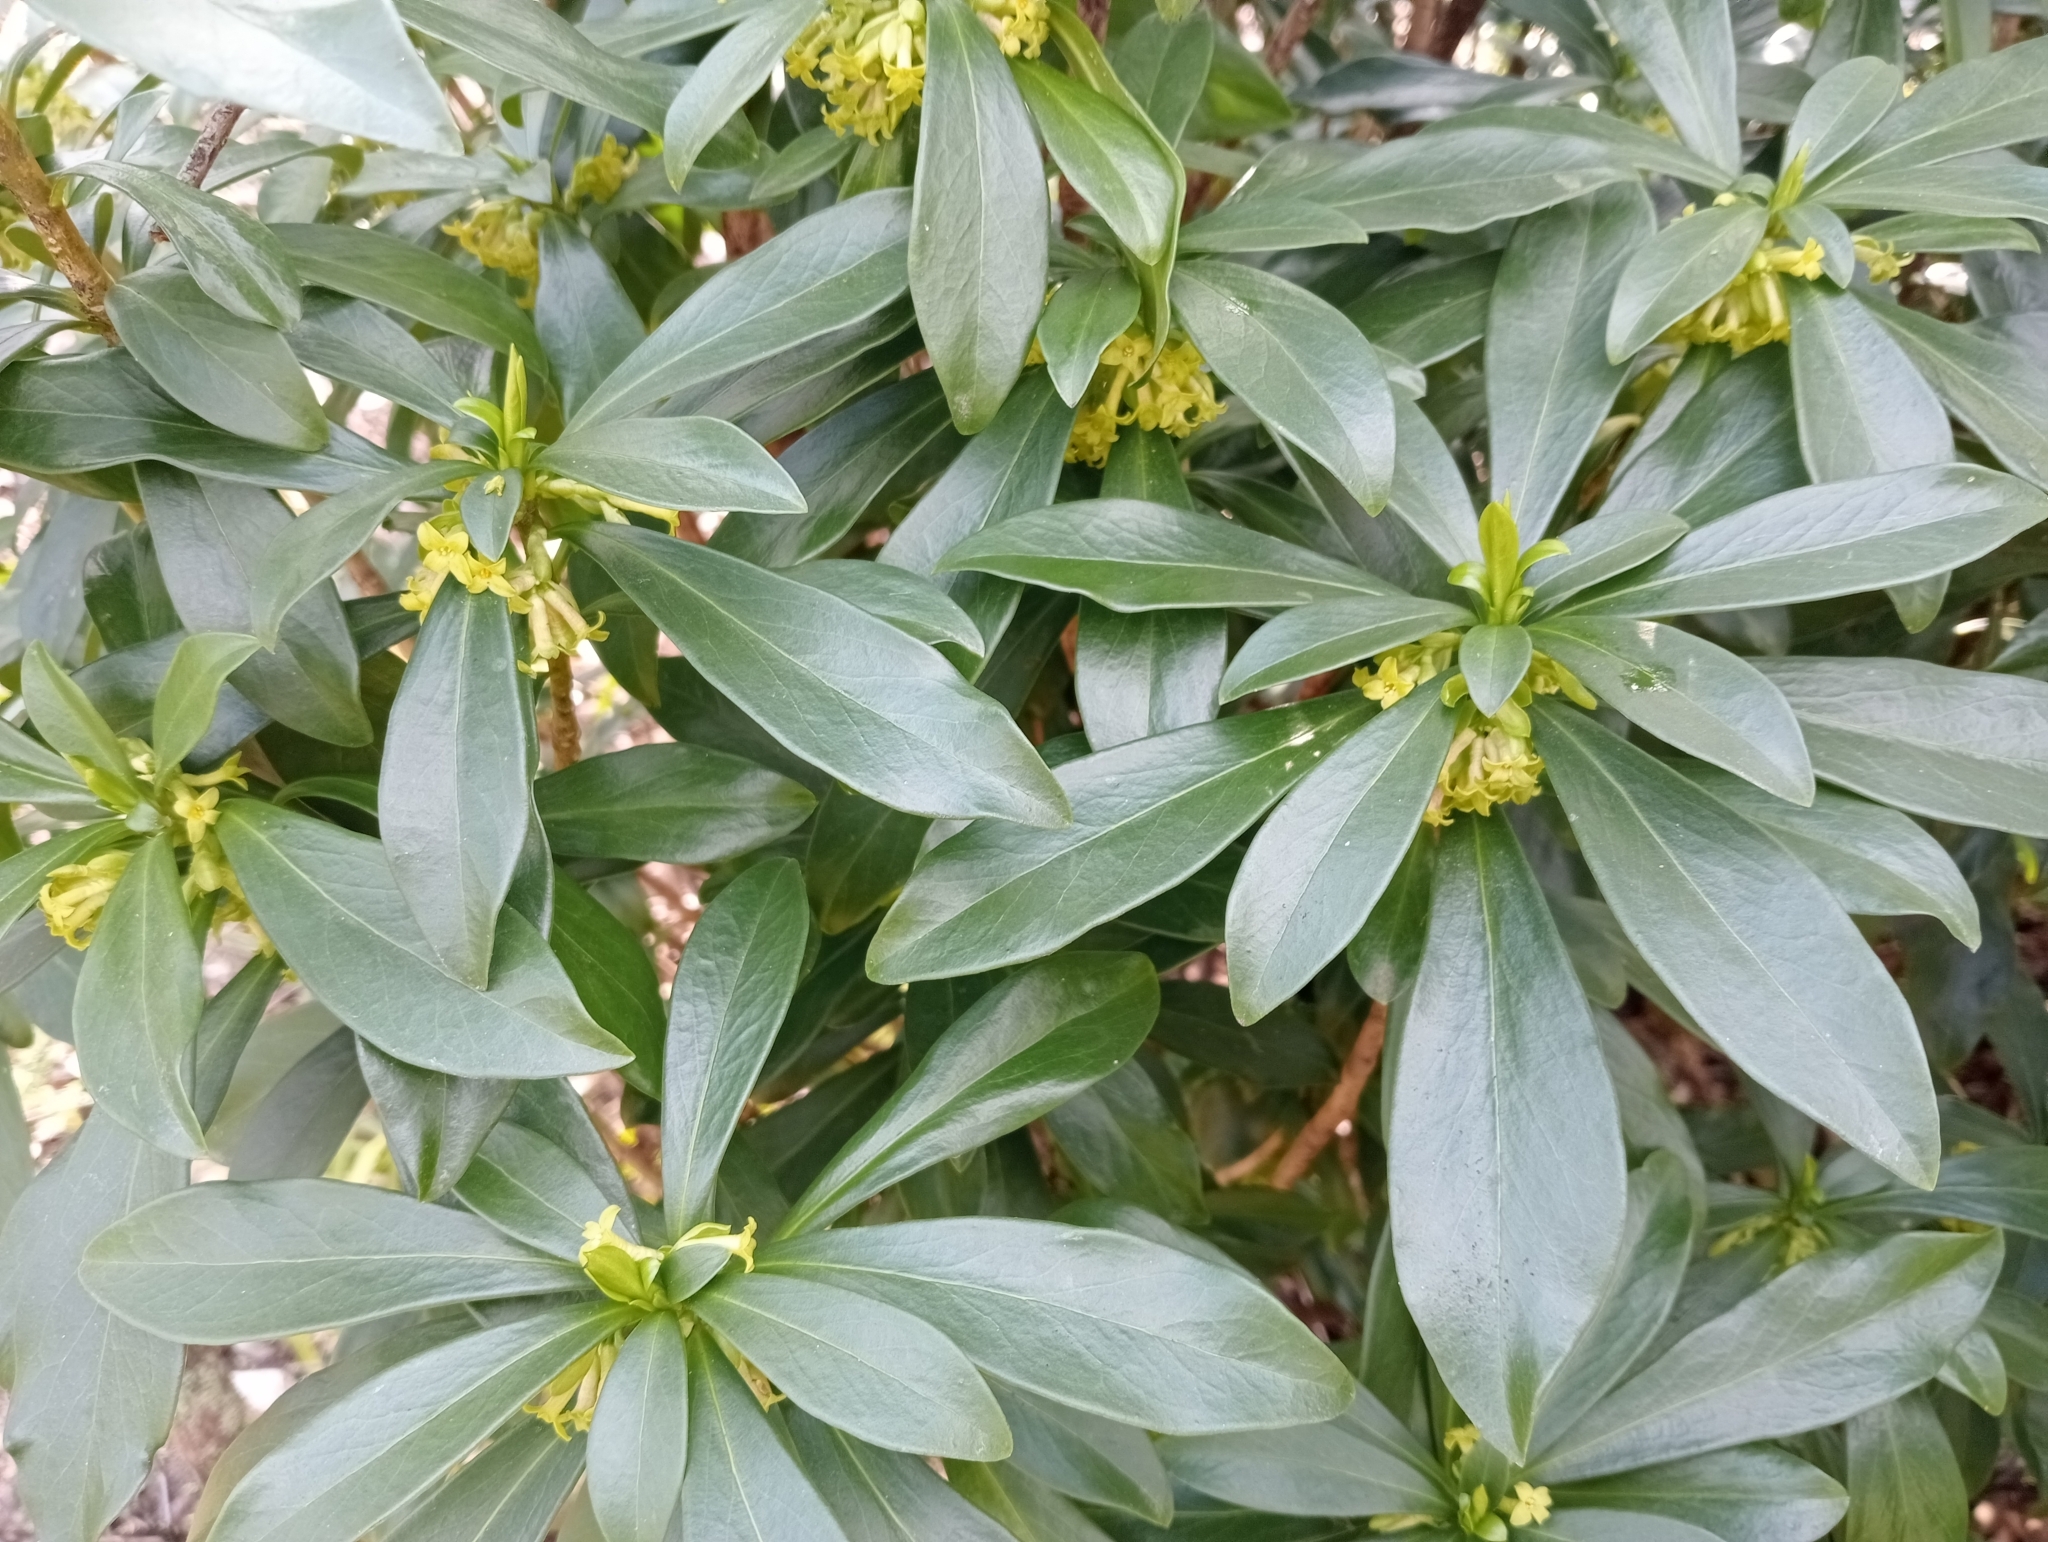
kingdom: Plantae
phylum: Tracheophyta
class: Magnoliopsida
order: Malvales
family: Thymelaeaceae
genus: Daphne
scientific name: Daphne laureola
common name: Spurge-laurel
